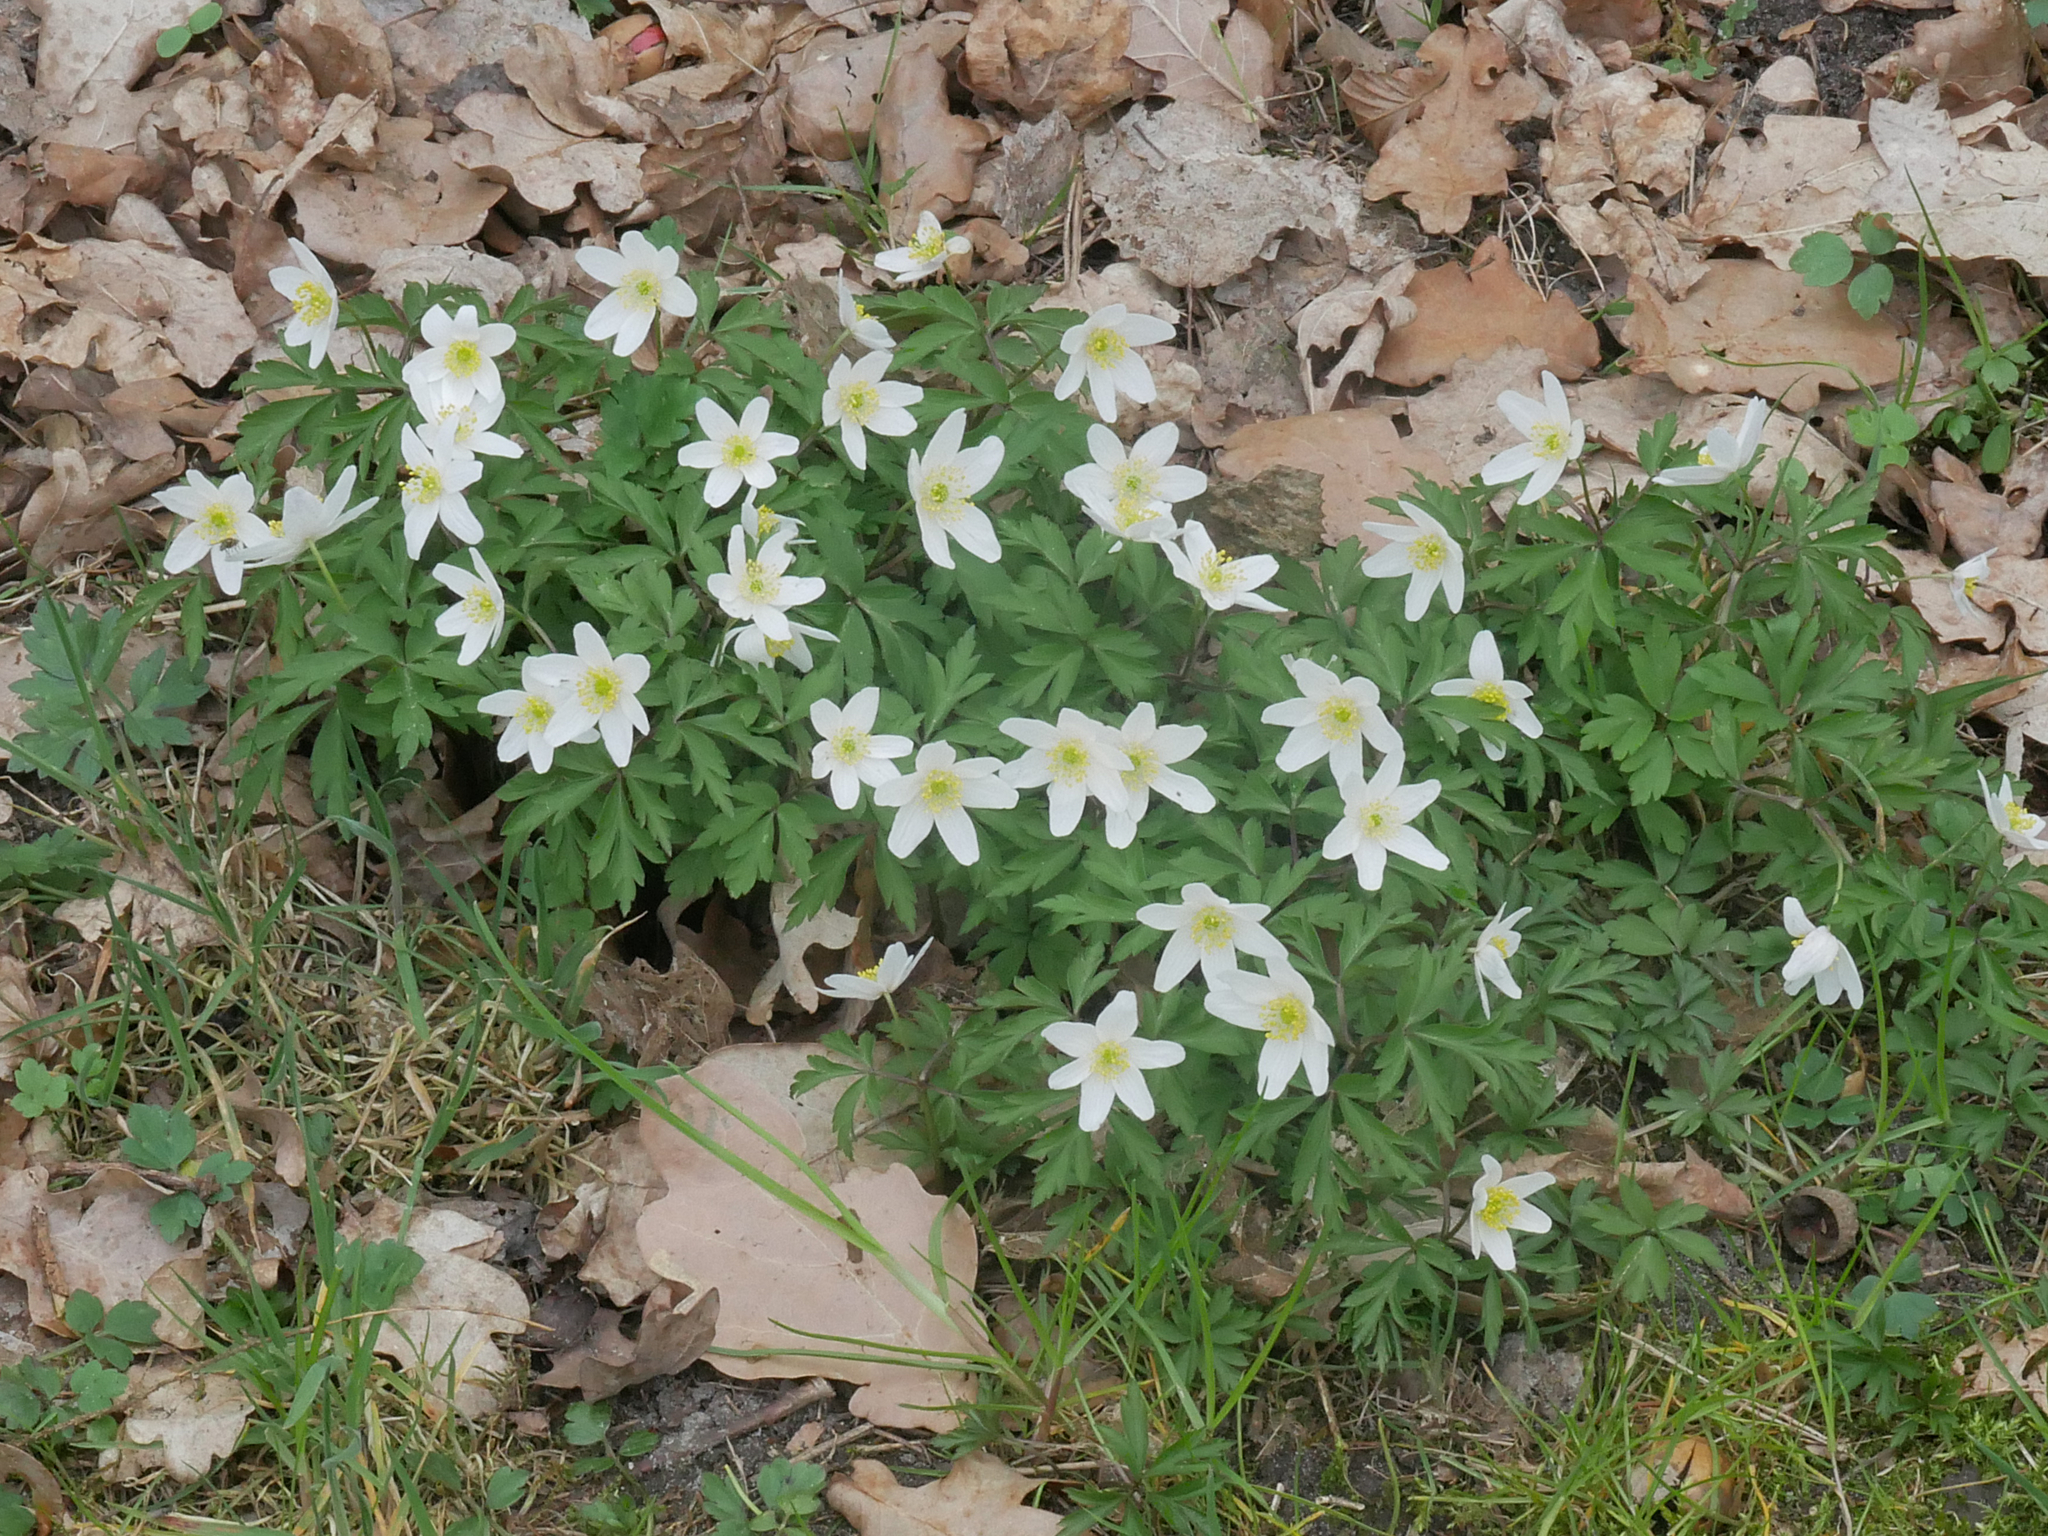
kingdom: Plantae
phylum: Tracheophyta
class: Magnoliopsida
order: Ranunculales
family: Ranunculaceae
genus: Anemone
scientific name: Anemone nemorosa
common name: Wood anemone
